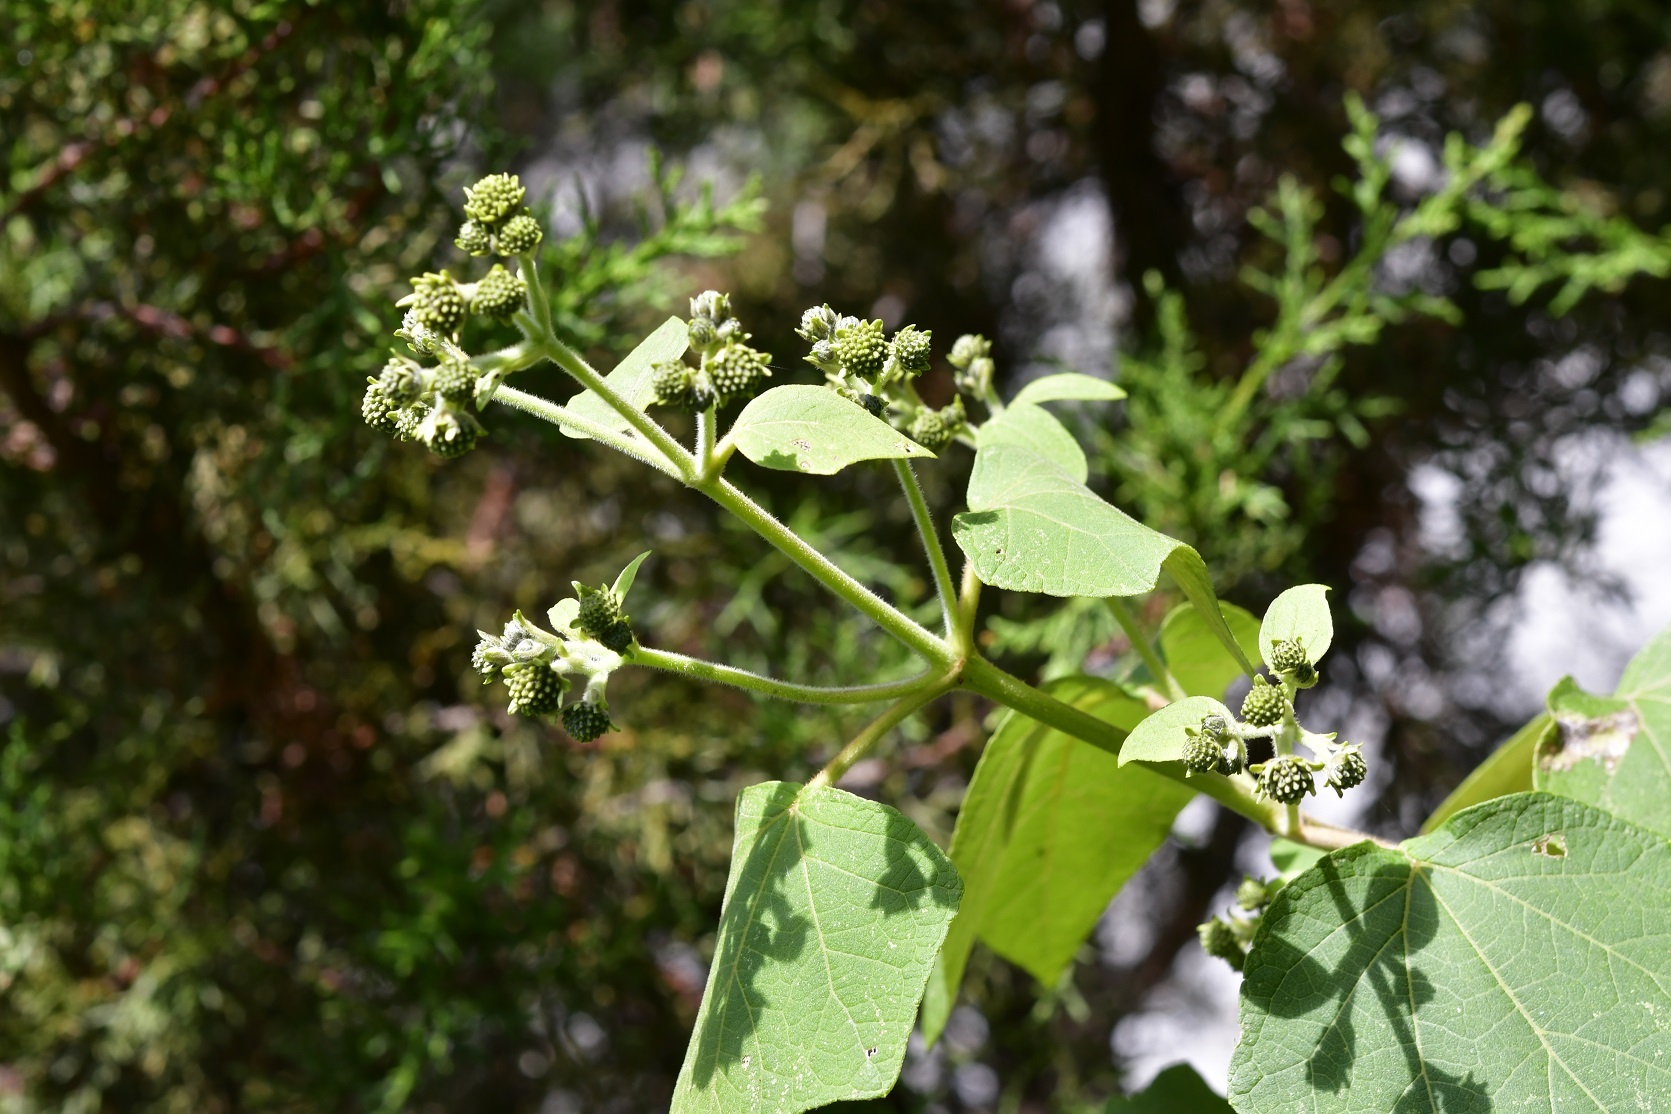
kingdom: Plantae
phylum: Tracheophyta
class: Magnoliopsida
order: Asterales
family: Asteraceae
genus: Montanoa
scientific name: Montanoa leucantha
